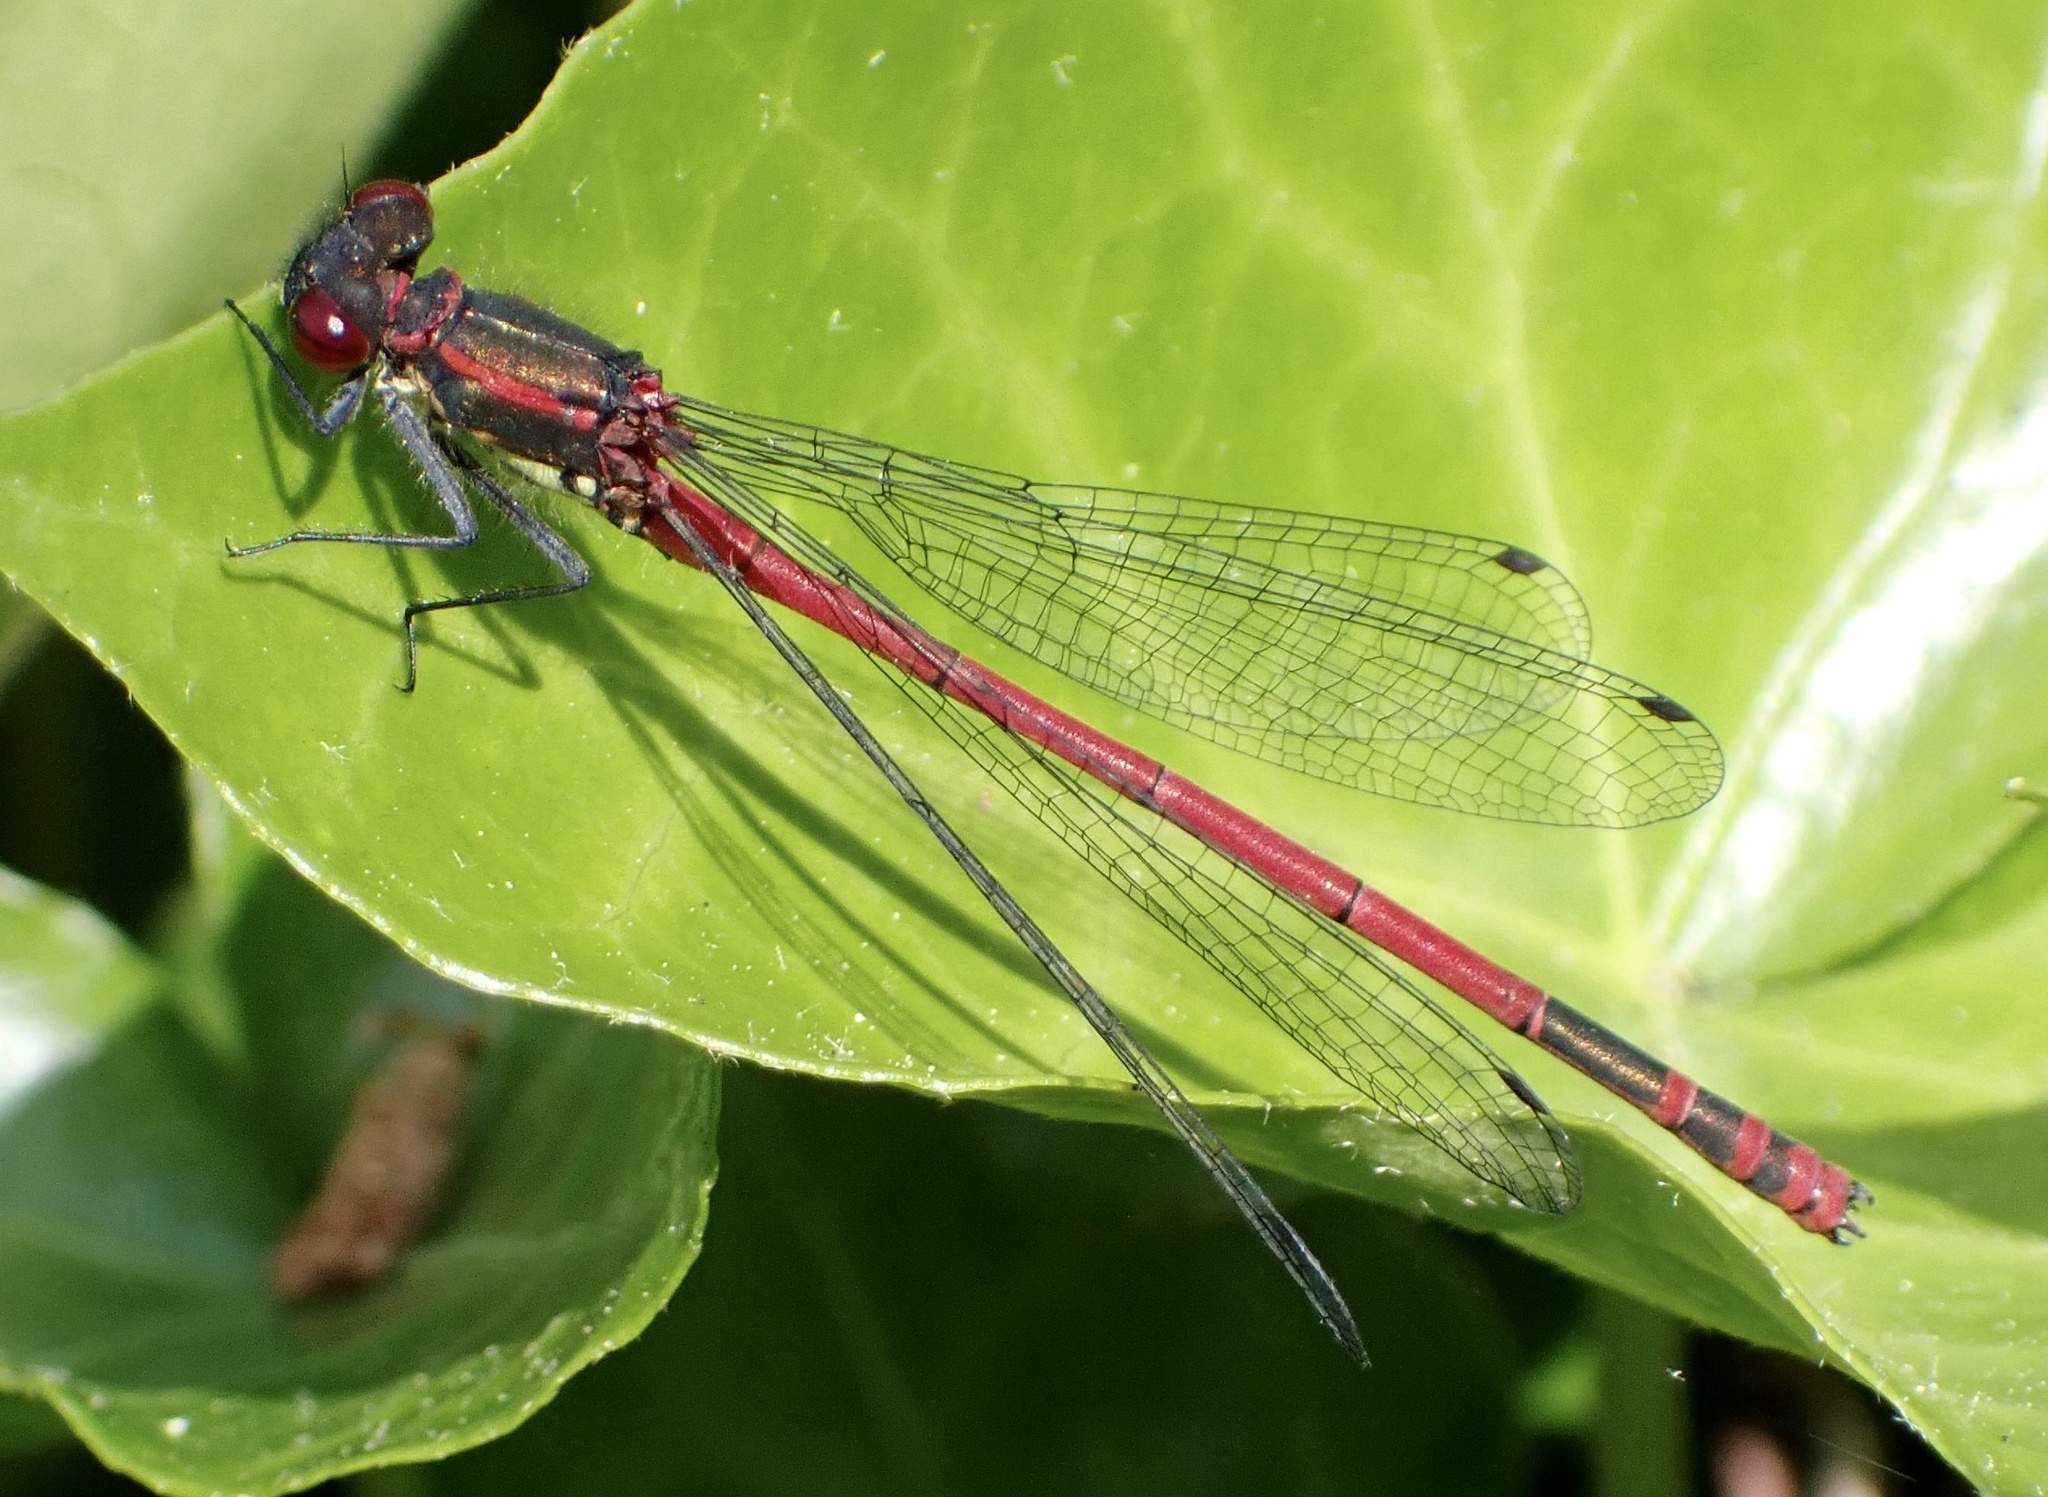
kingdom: Animalia
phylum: Arthropoda
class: Insecta
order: Odonata
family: Coenagrionidae
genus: Pyrrhosoma
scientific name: Pyrrhosoma nymphula
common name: Large red damsel
